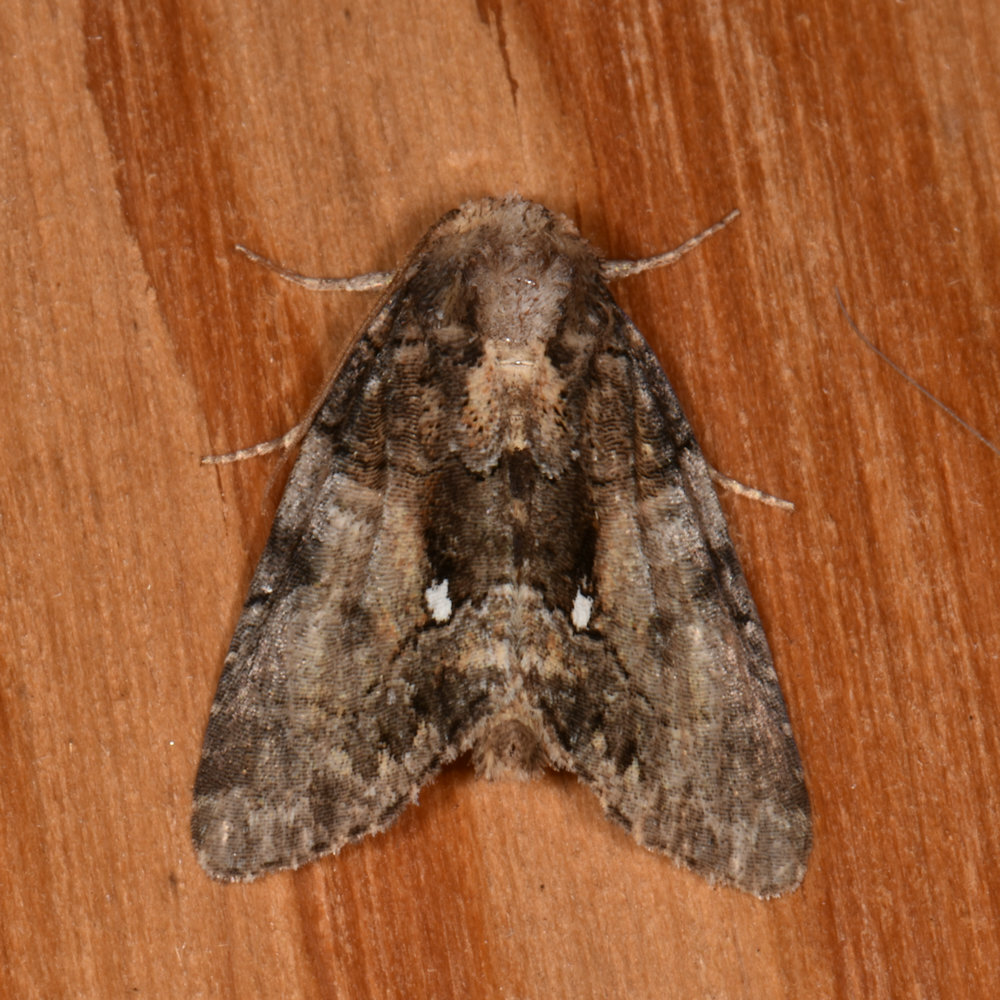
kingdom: Animalia
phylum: Arthropoda
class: Insecta
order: Lepidoptera
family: Noctuidae
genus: Chytonix
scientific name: Chytonix palliatricula
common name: Cloaked marvel
